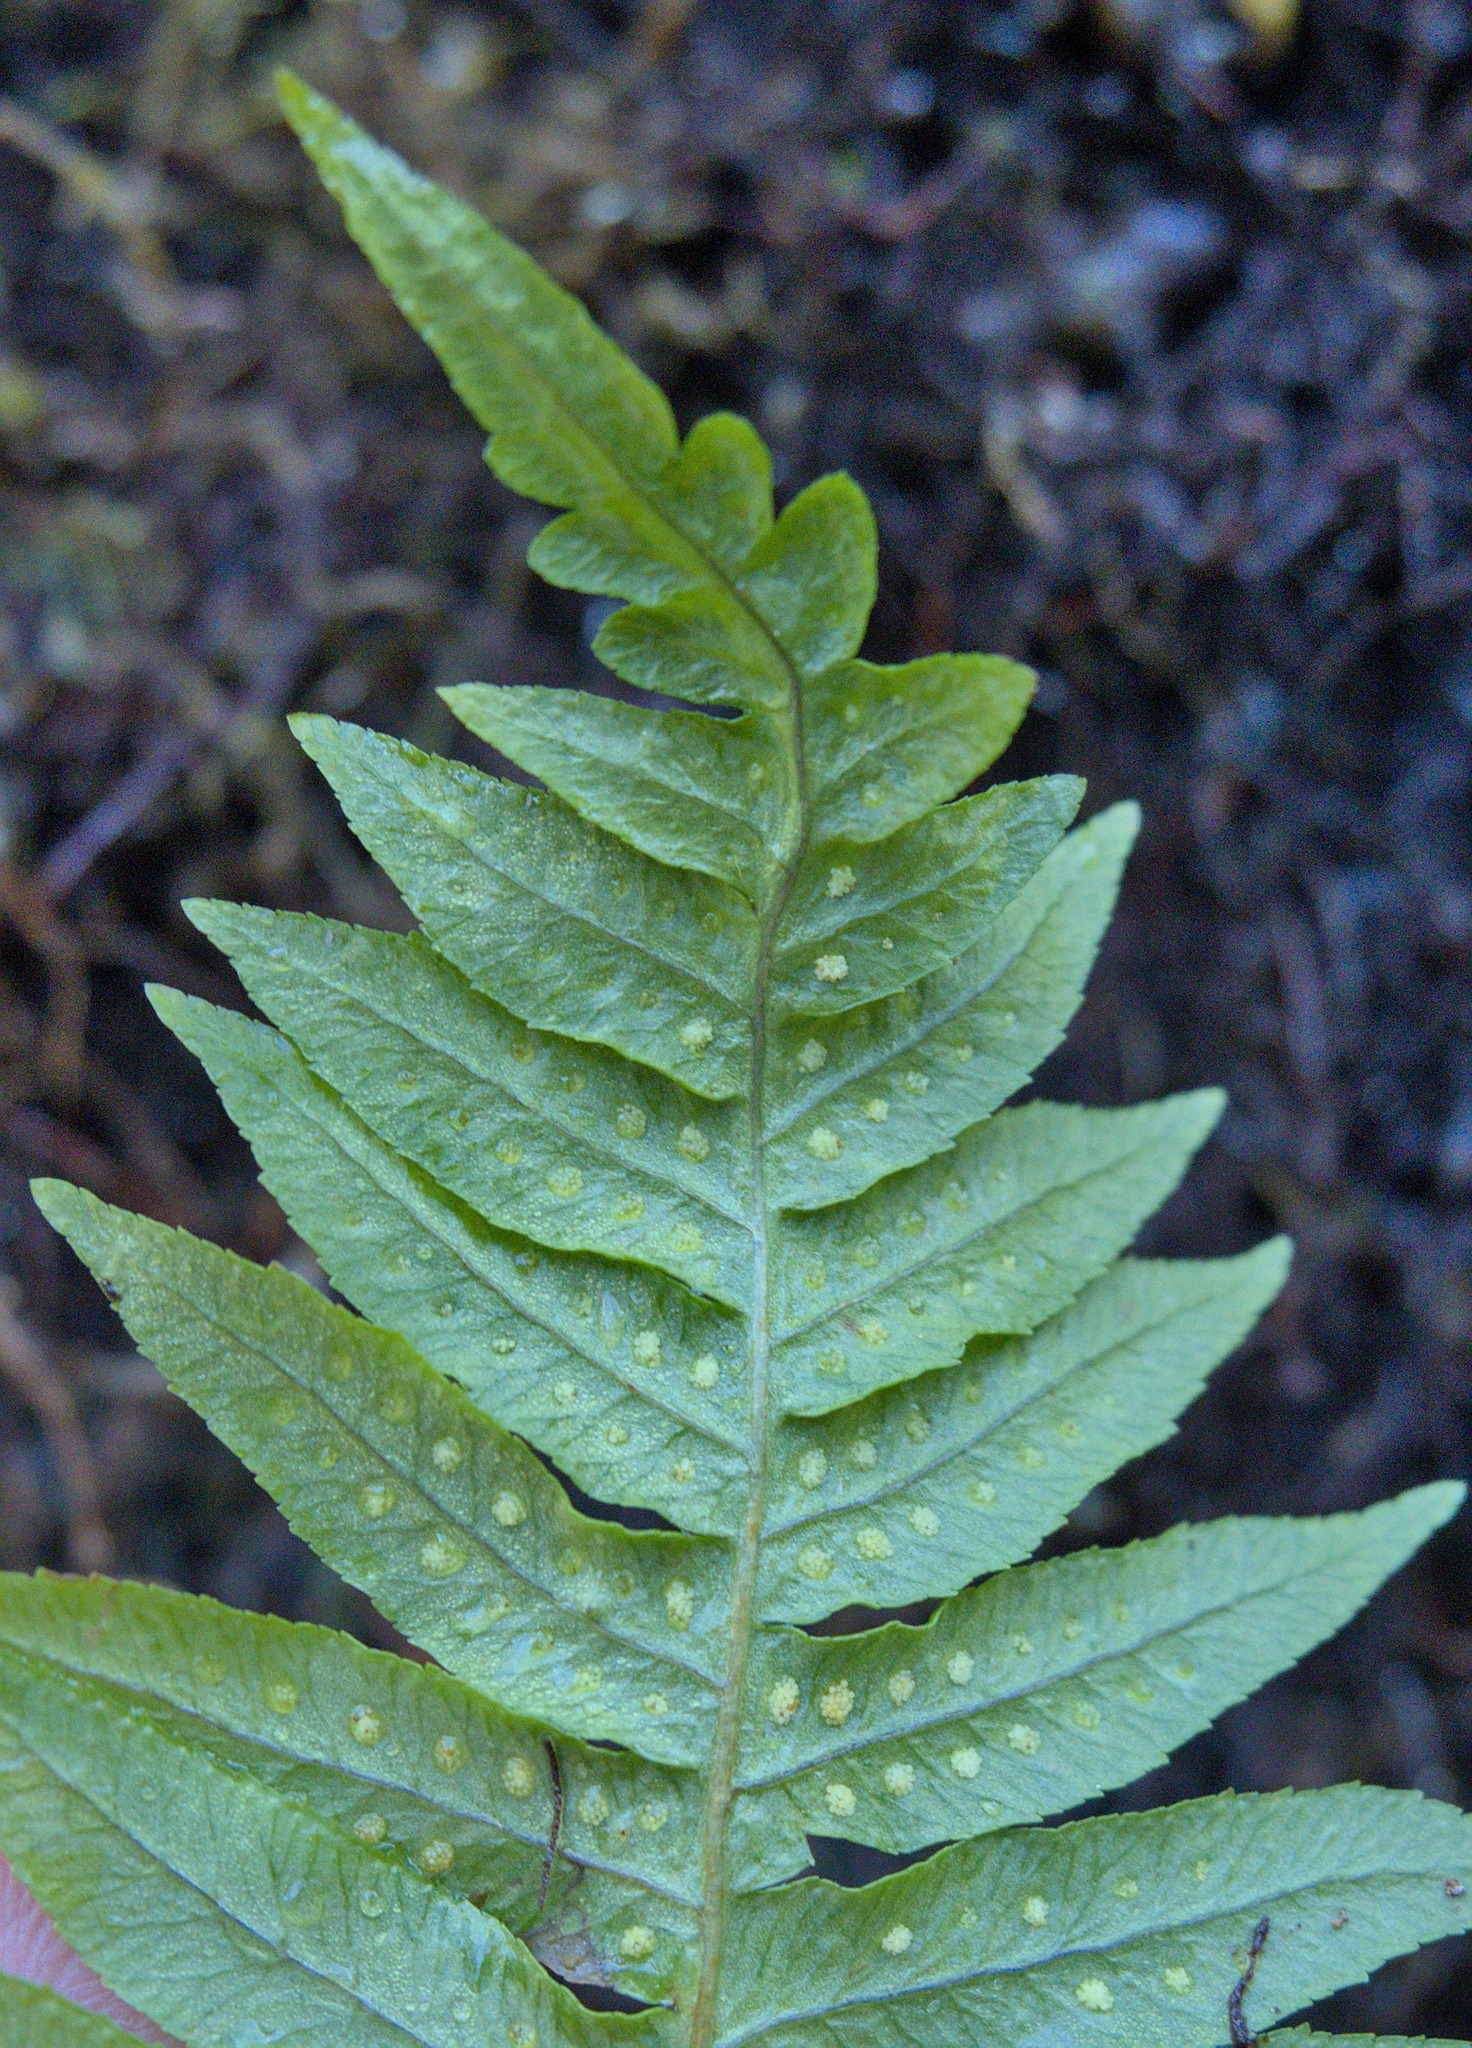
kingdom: Plantae
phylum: Tracheophyta
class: Polypodiopsida
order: Polypodiales
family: Polypodiaceae
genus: Polypodium
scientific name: Polypodium glycyrrhiza
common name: Licorice fern
